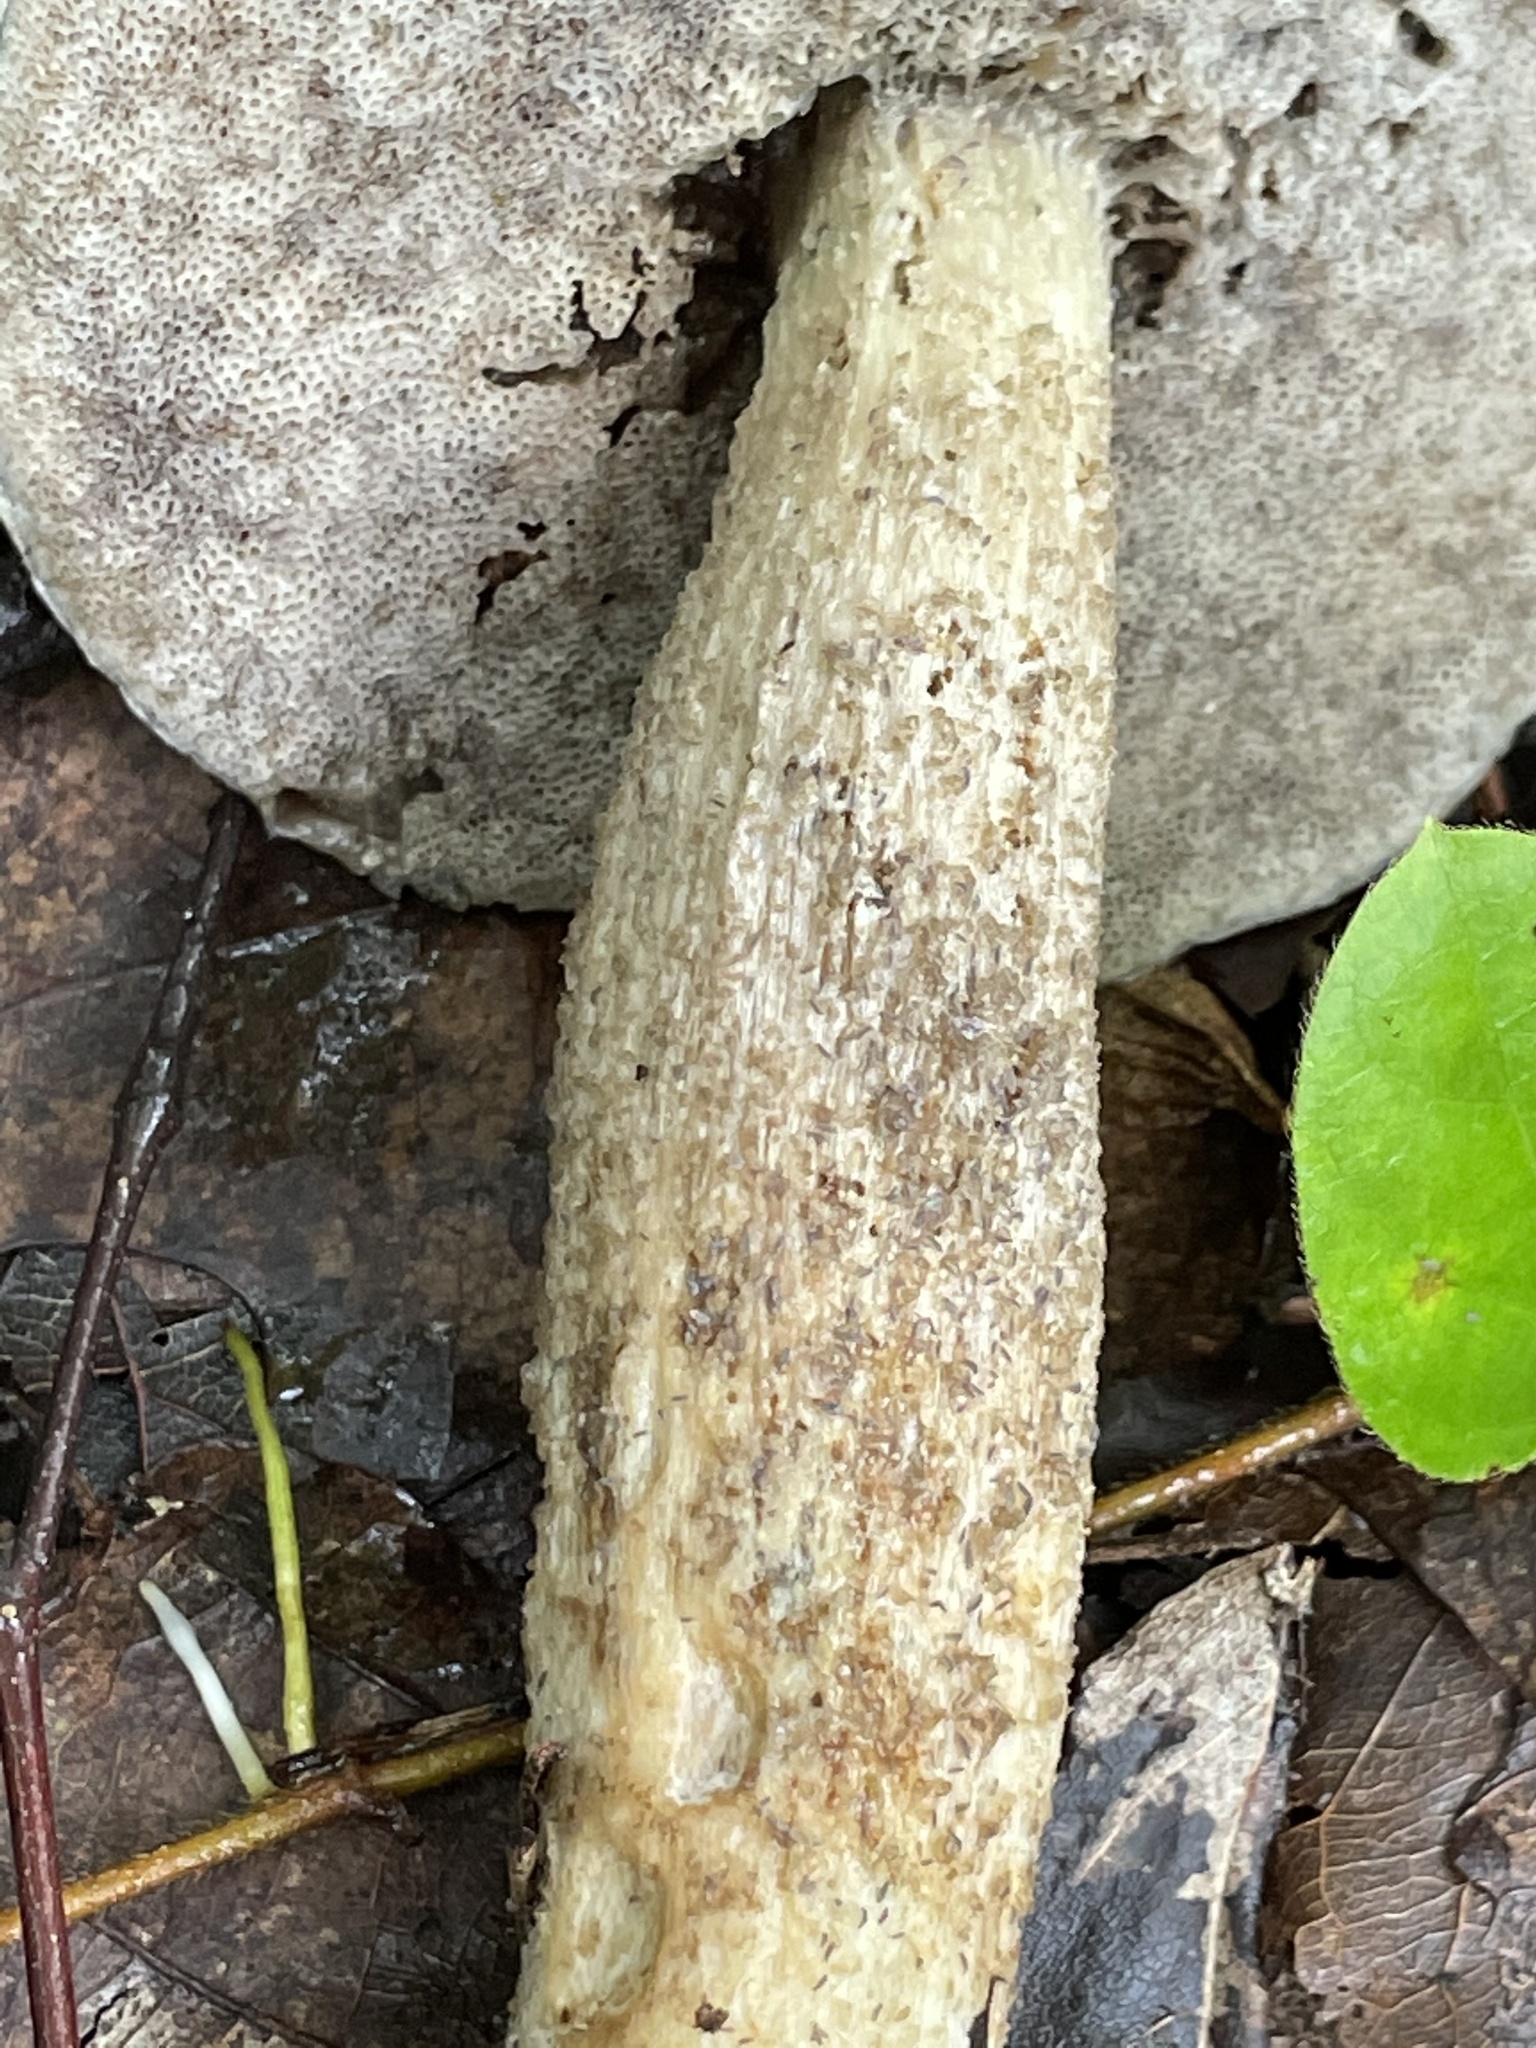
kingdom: Fungi
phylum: Basidiomycota
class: Agaricomycetes
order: Boletales
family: Boletaceae
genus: Leccinum
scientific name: Leccinum holopus
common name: Ghost bolete
